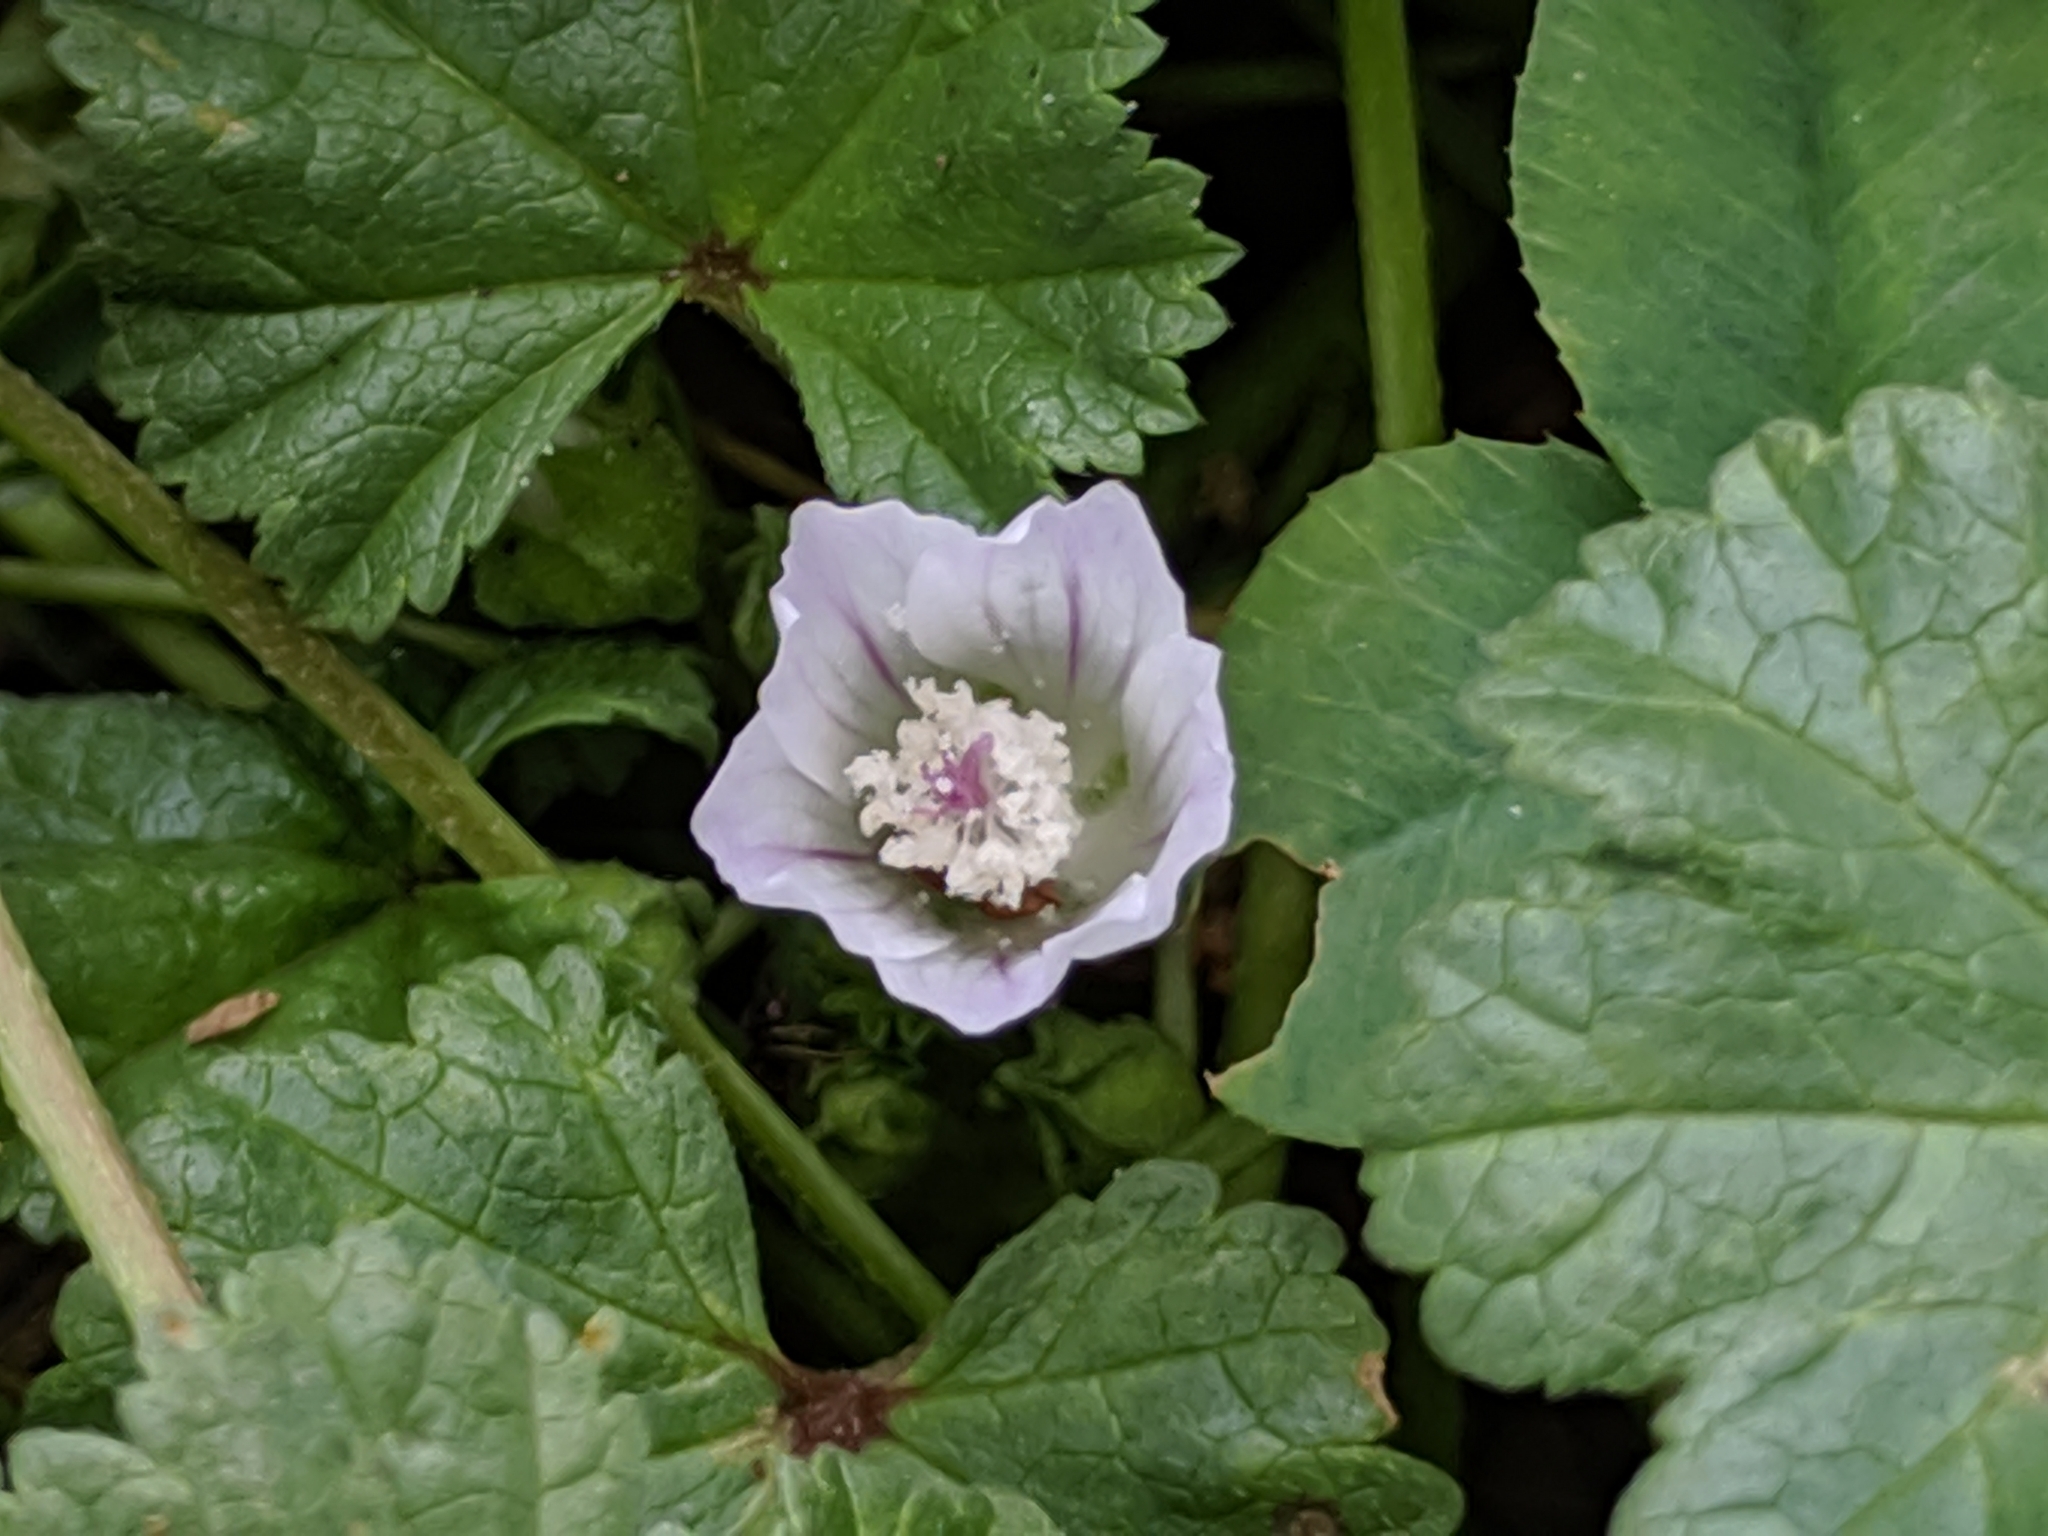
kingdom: Plantae
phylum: Tracheophyta
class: Magnoliopsida
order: Malvales
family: Malvaceae
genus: Malva
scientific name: Malva neglecta
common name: Common mallow
